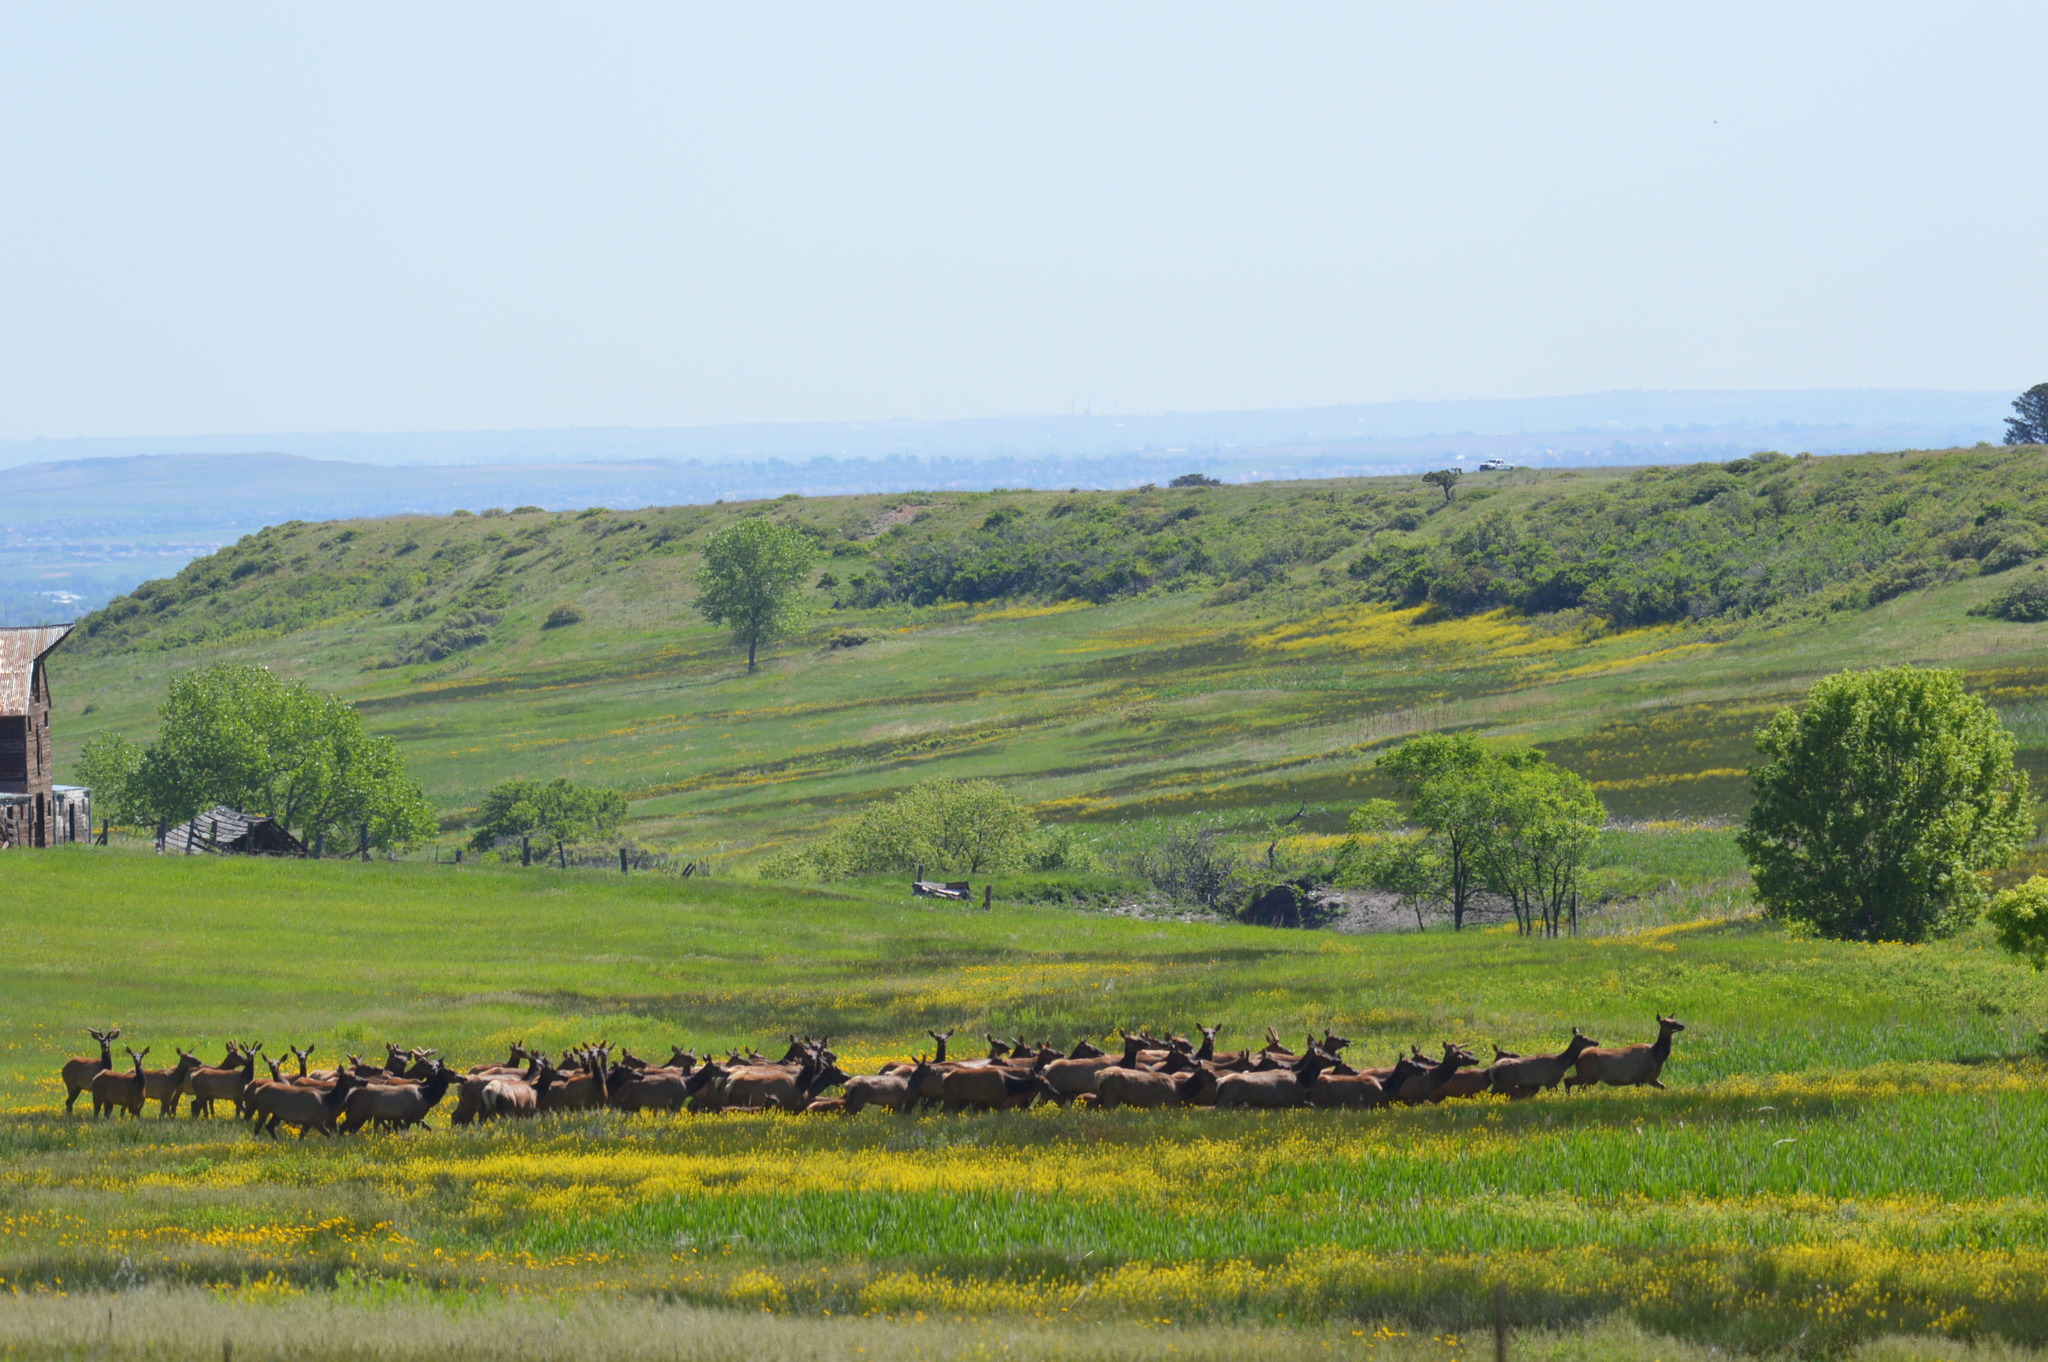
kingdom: Animalia
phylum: Chordata
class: Mammalia
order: Artiodactyla
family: Cervidae
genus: Cervus
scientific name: Cervus elaphus
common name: Red deer
